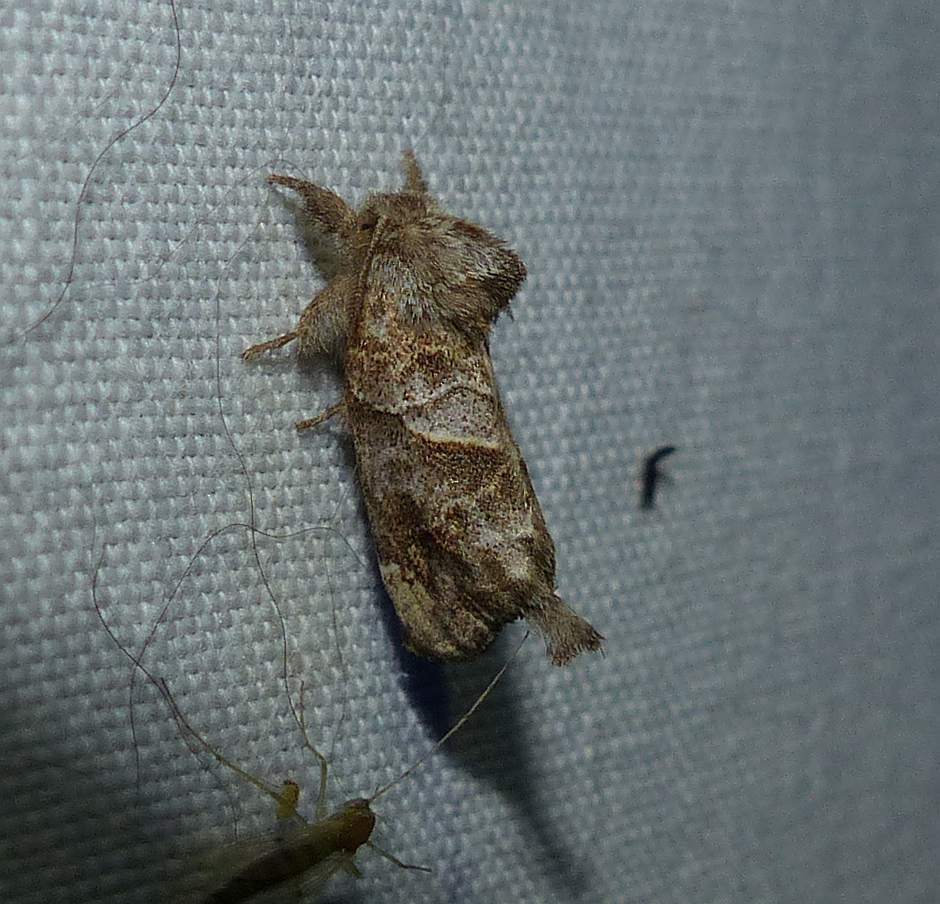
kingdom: Animalia
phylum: Arthropoda
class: Insecta
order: Lepidoptera
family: Notodontidae
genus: Clostera
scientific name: Clostera strigosa
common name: Striped chocolate-tip moth
